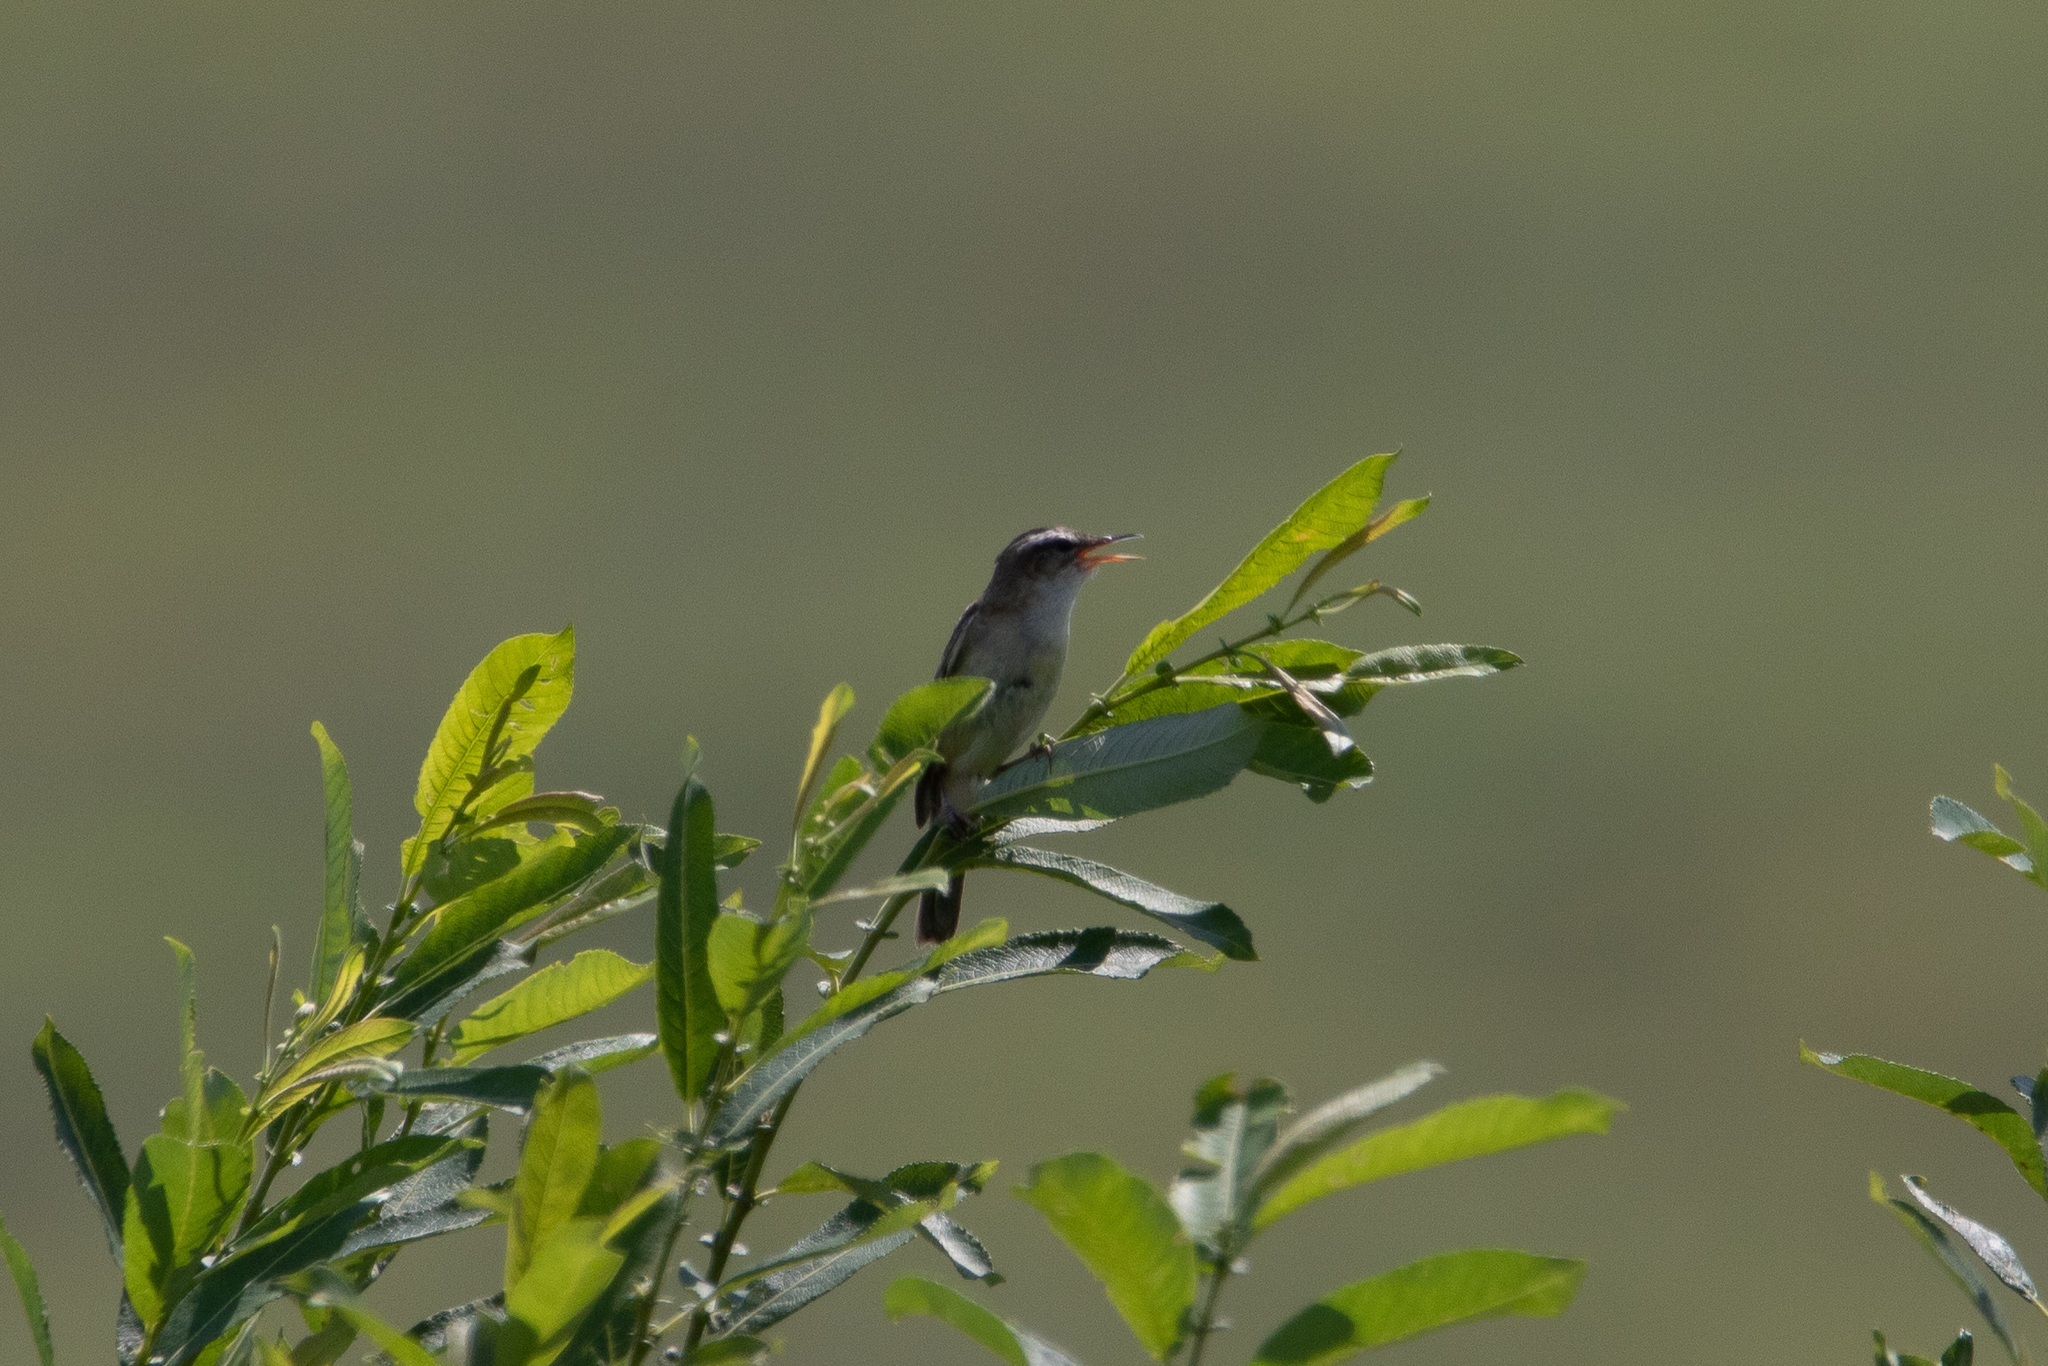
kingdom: Animalia
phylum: Chordata
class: Aves
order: Passeriformes
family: Acrocephalidae
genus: Acrocephalus
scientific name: Acrocephalus schoenobaenus
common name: Sedge warbler
